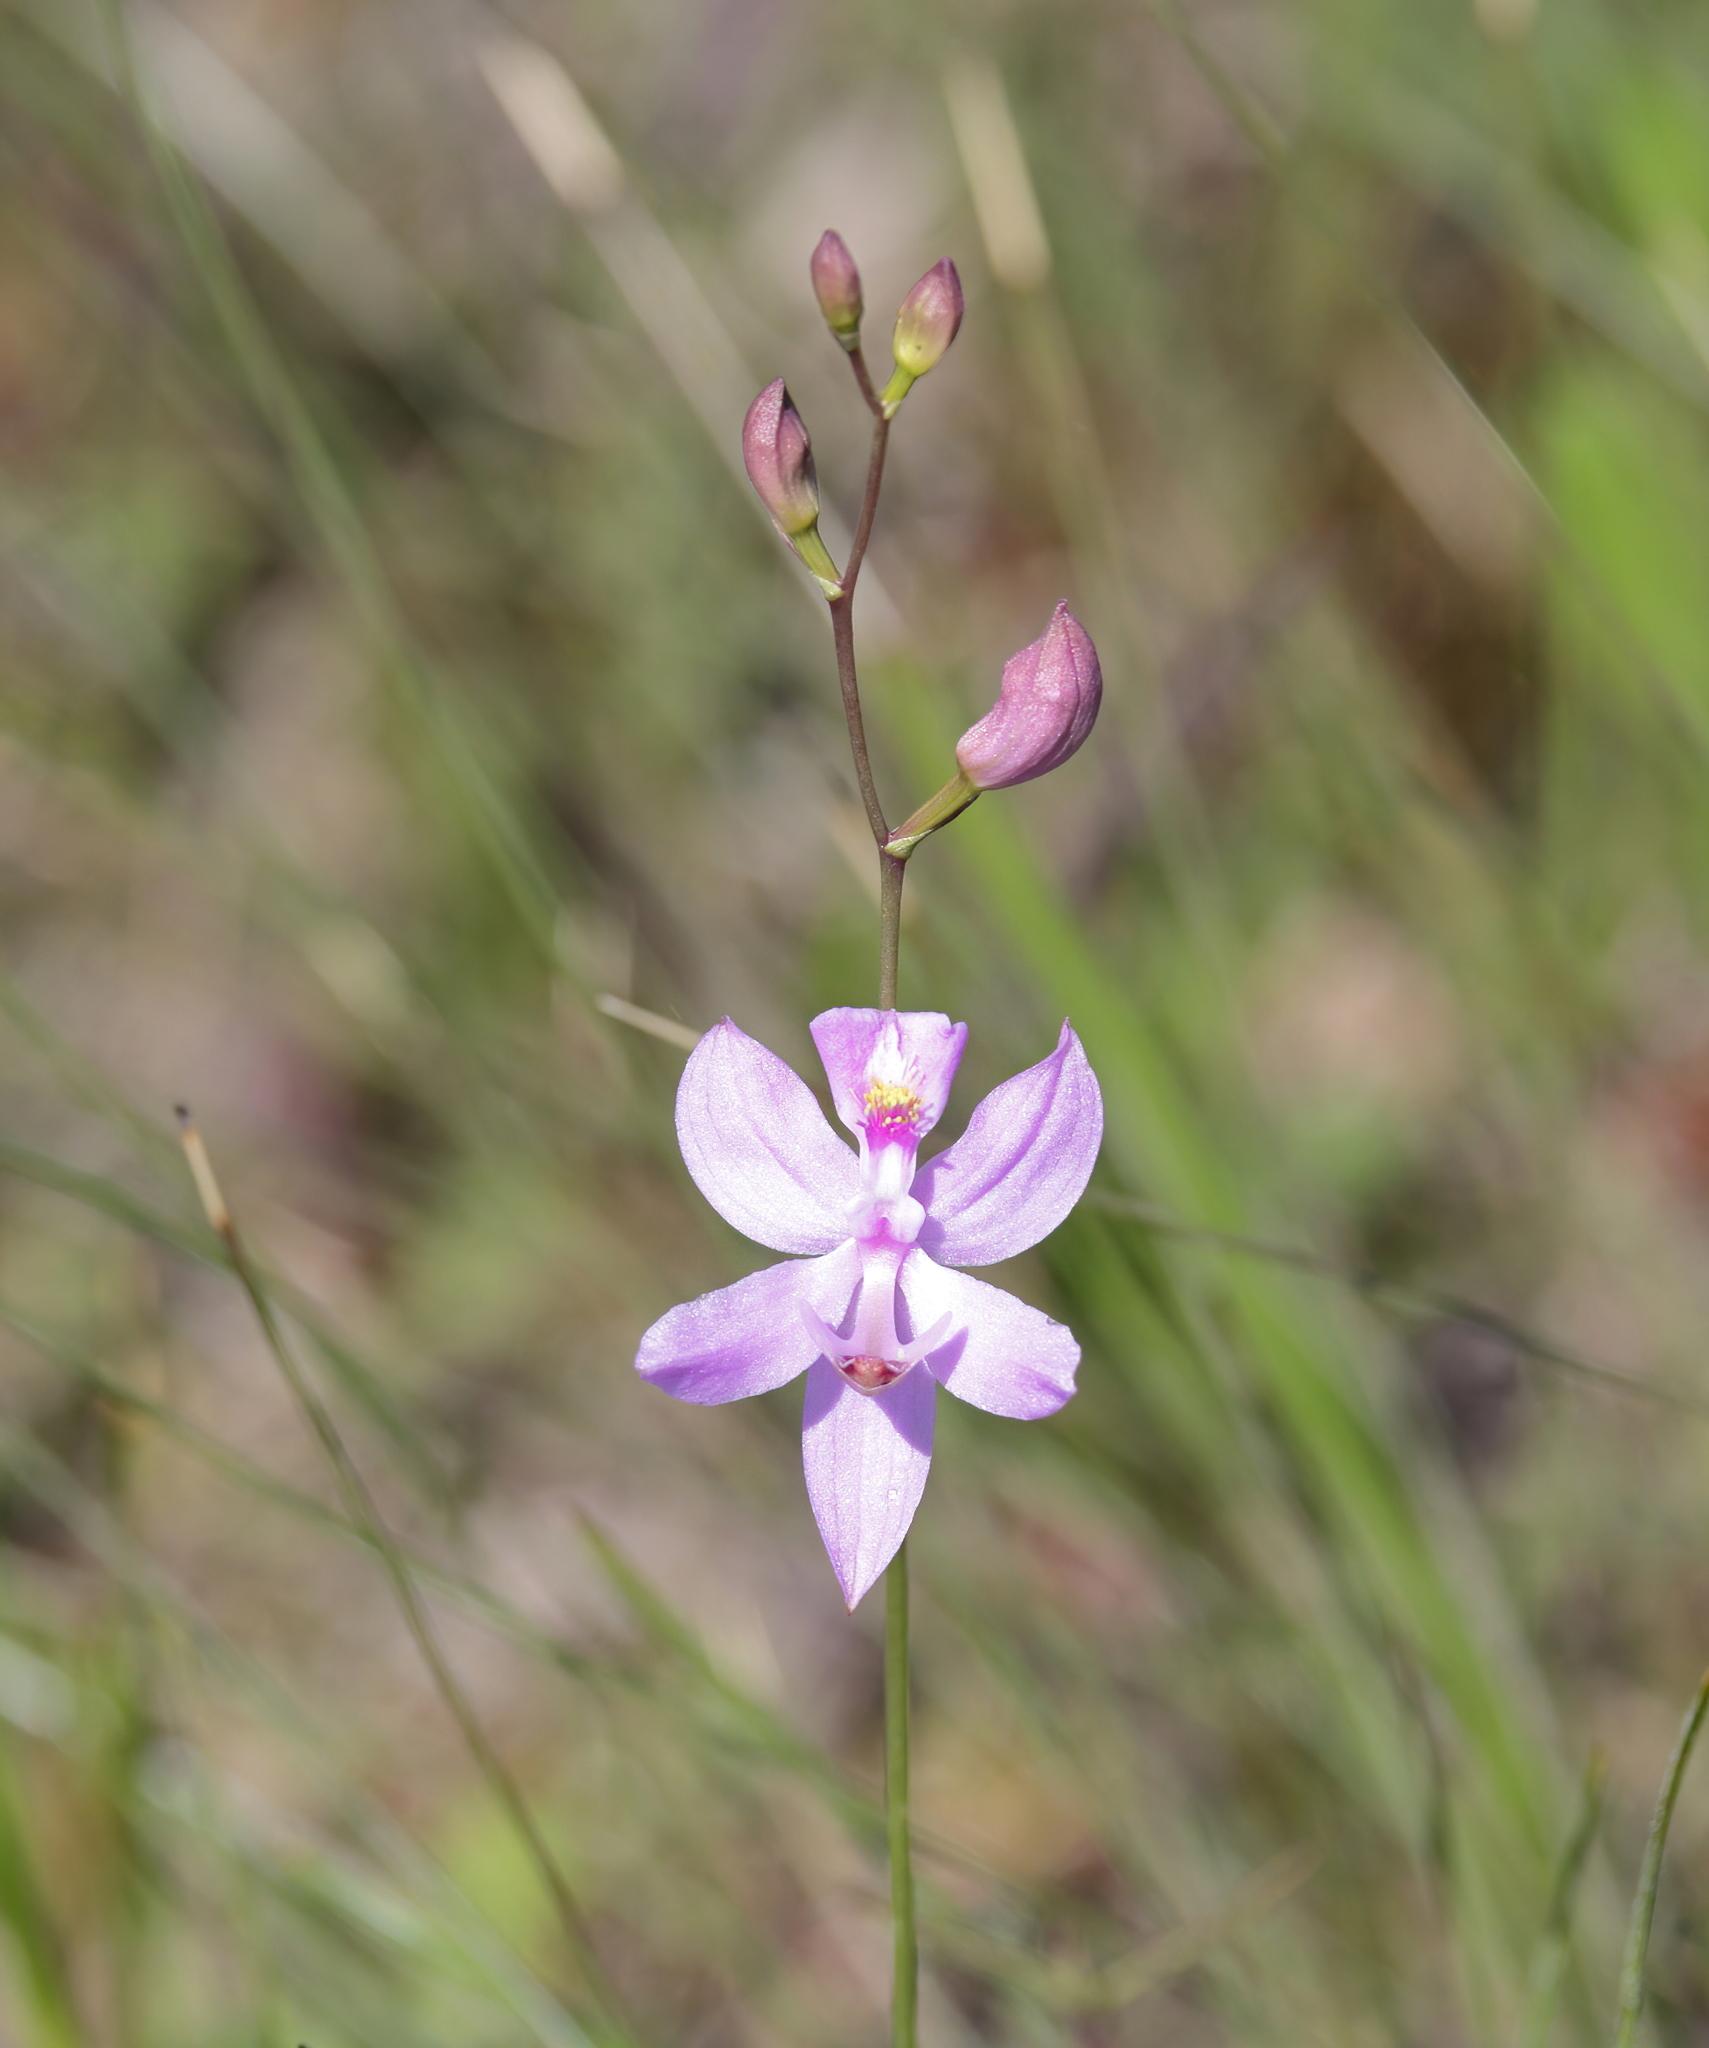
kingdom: Plantae
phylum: Tracheophyta
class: Liliopsida
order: Asparagales
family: Orchidaceae
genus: Calopogon
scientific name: Calopogon pallidus
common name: Pale grasspink
